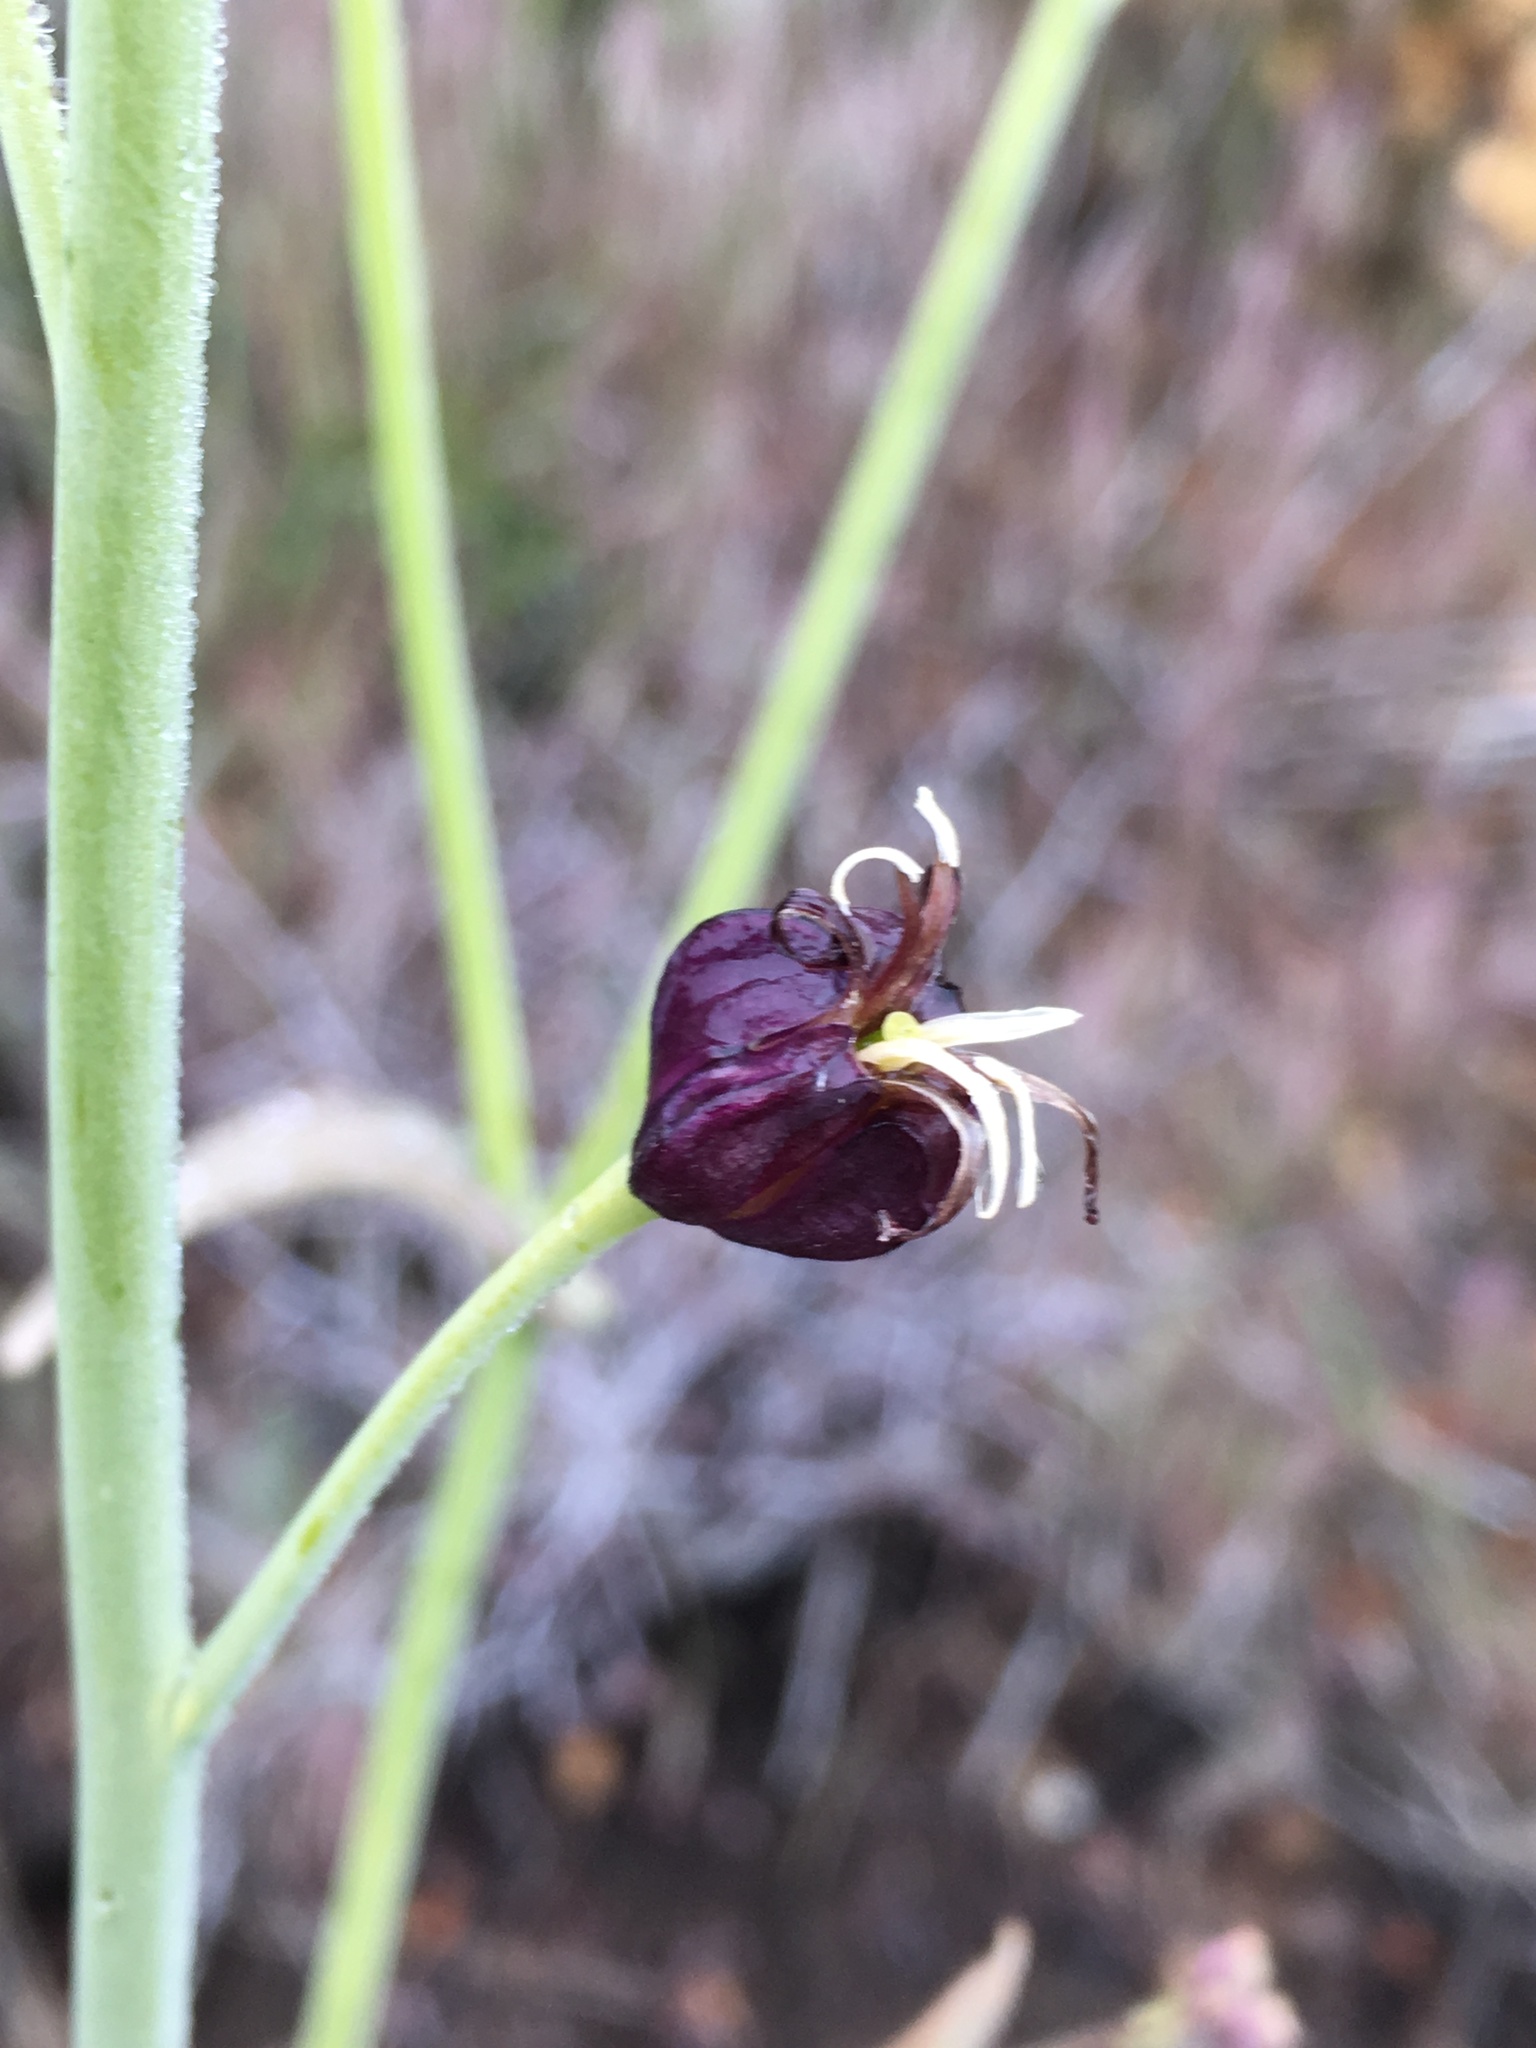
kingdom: Plantae
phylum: Tracheophyta
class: Magnoliopsida
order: Brassicales
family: Brassicaceae
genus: Streptanthus
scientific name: Streptanthus amplexicaulis
